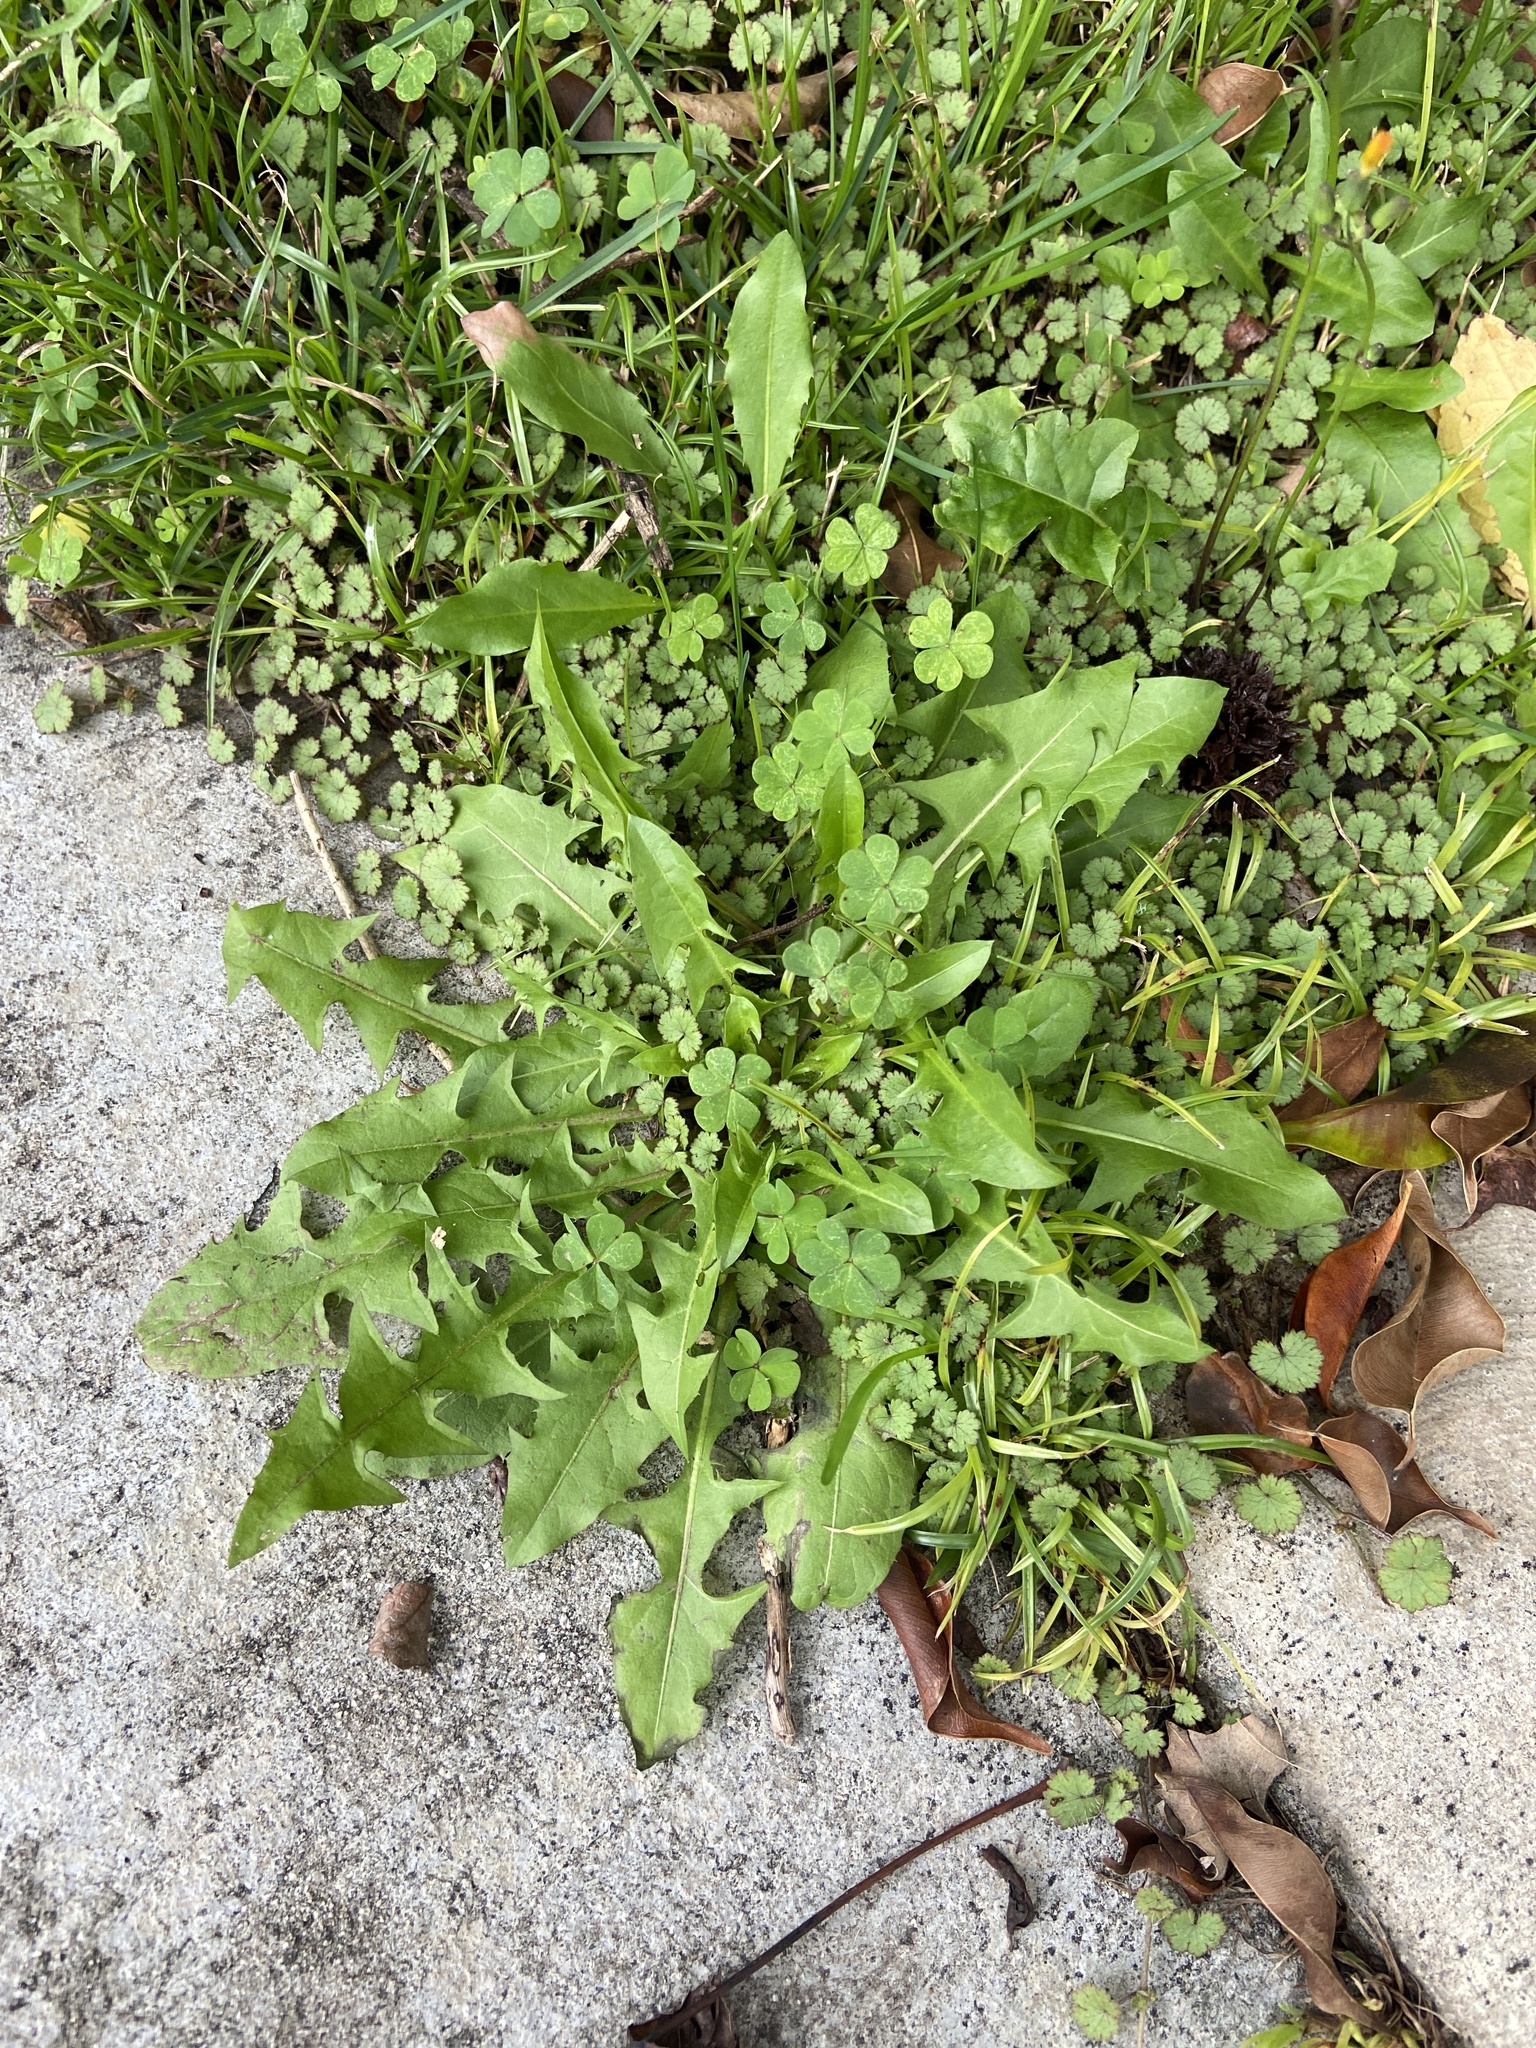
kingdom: Plantae
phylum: Tracheophyta
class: Magnoliopsida
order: Asterales
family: Asteraceae
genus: Taraxacum
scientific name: Taraxacum officinale
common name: Common dandelion
